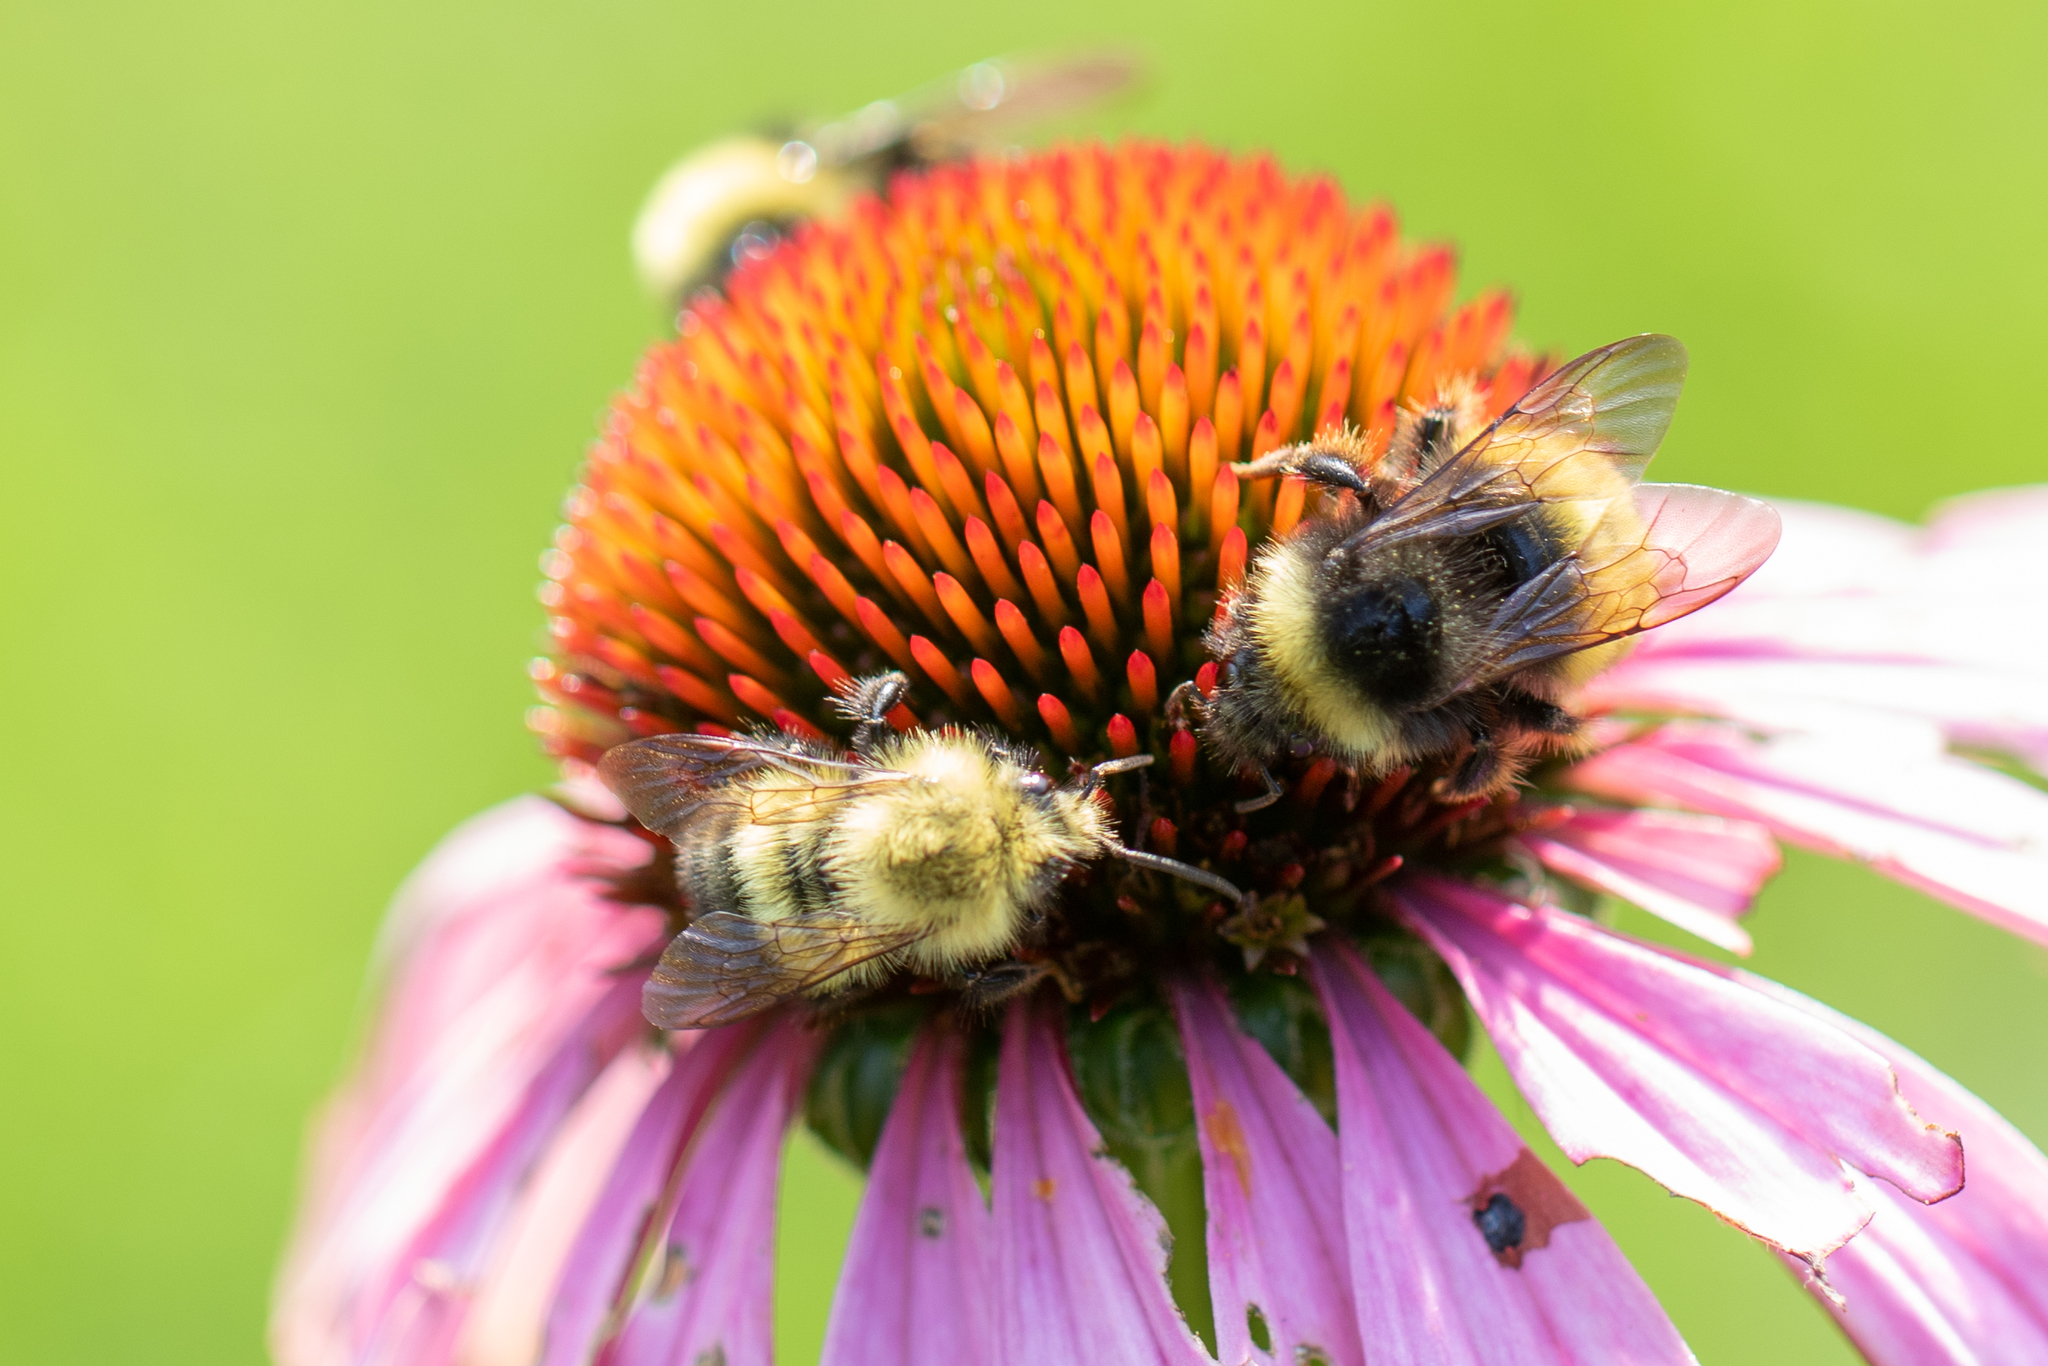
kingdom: Animalia
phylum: Arthropoda
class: Insecta
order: Hymenoptera
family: Apidae
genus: Bombus
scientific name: Bombus terricola
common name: Yellow-banded bumble bee
